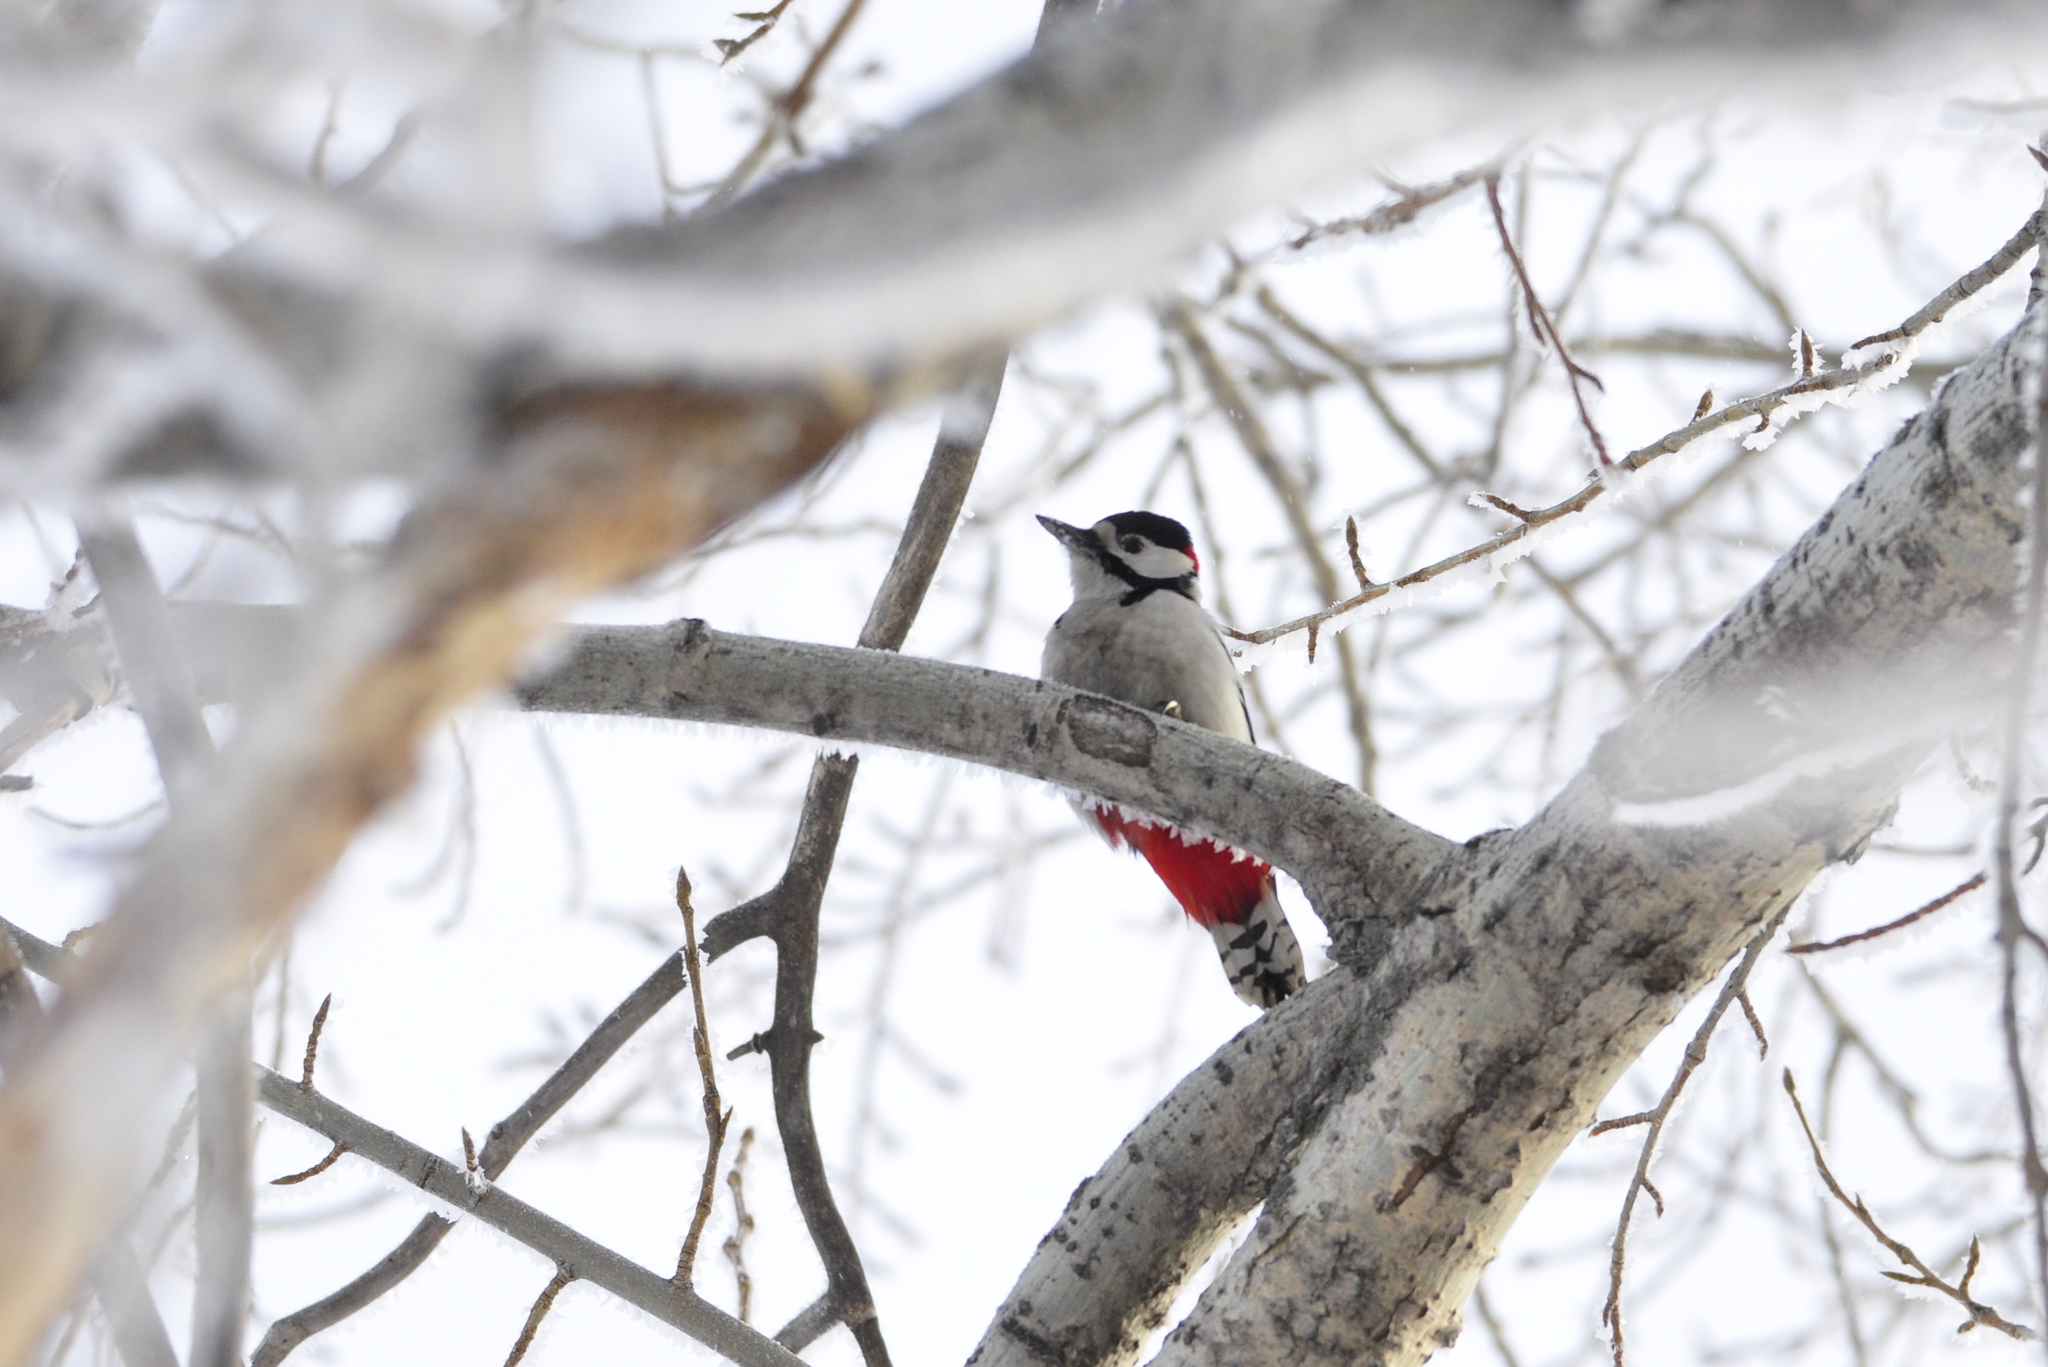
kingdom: Animalia
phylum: Chordata
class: Aves
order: Piciformes
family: Picidae
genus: Dendrocopos
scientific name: Dendrocopos major
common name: Great spotted woodpecker
